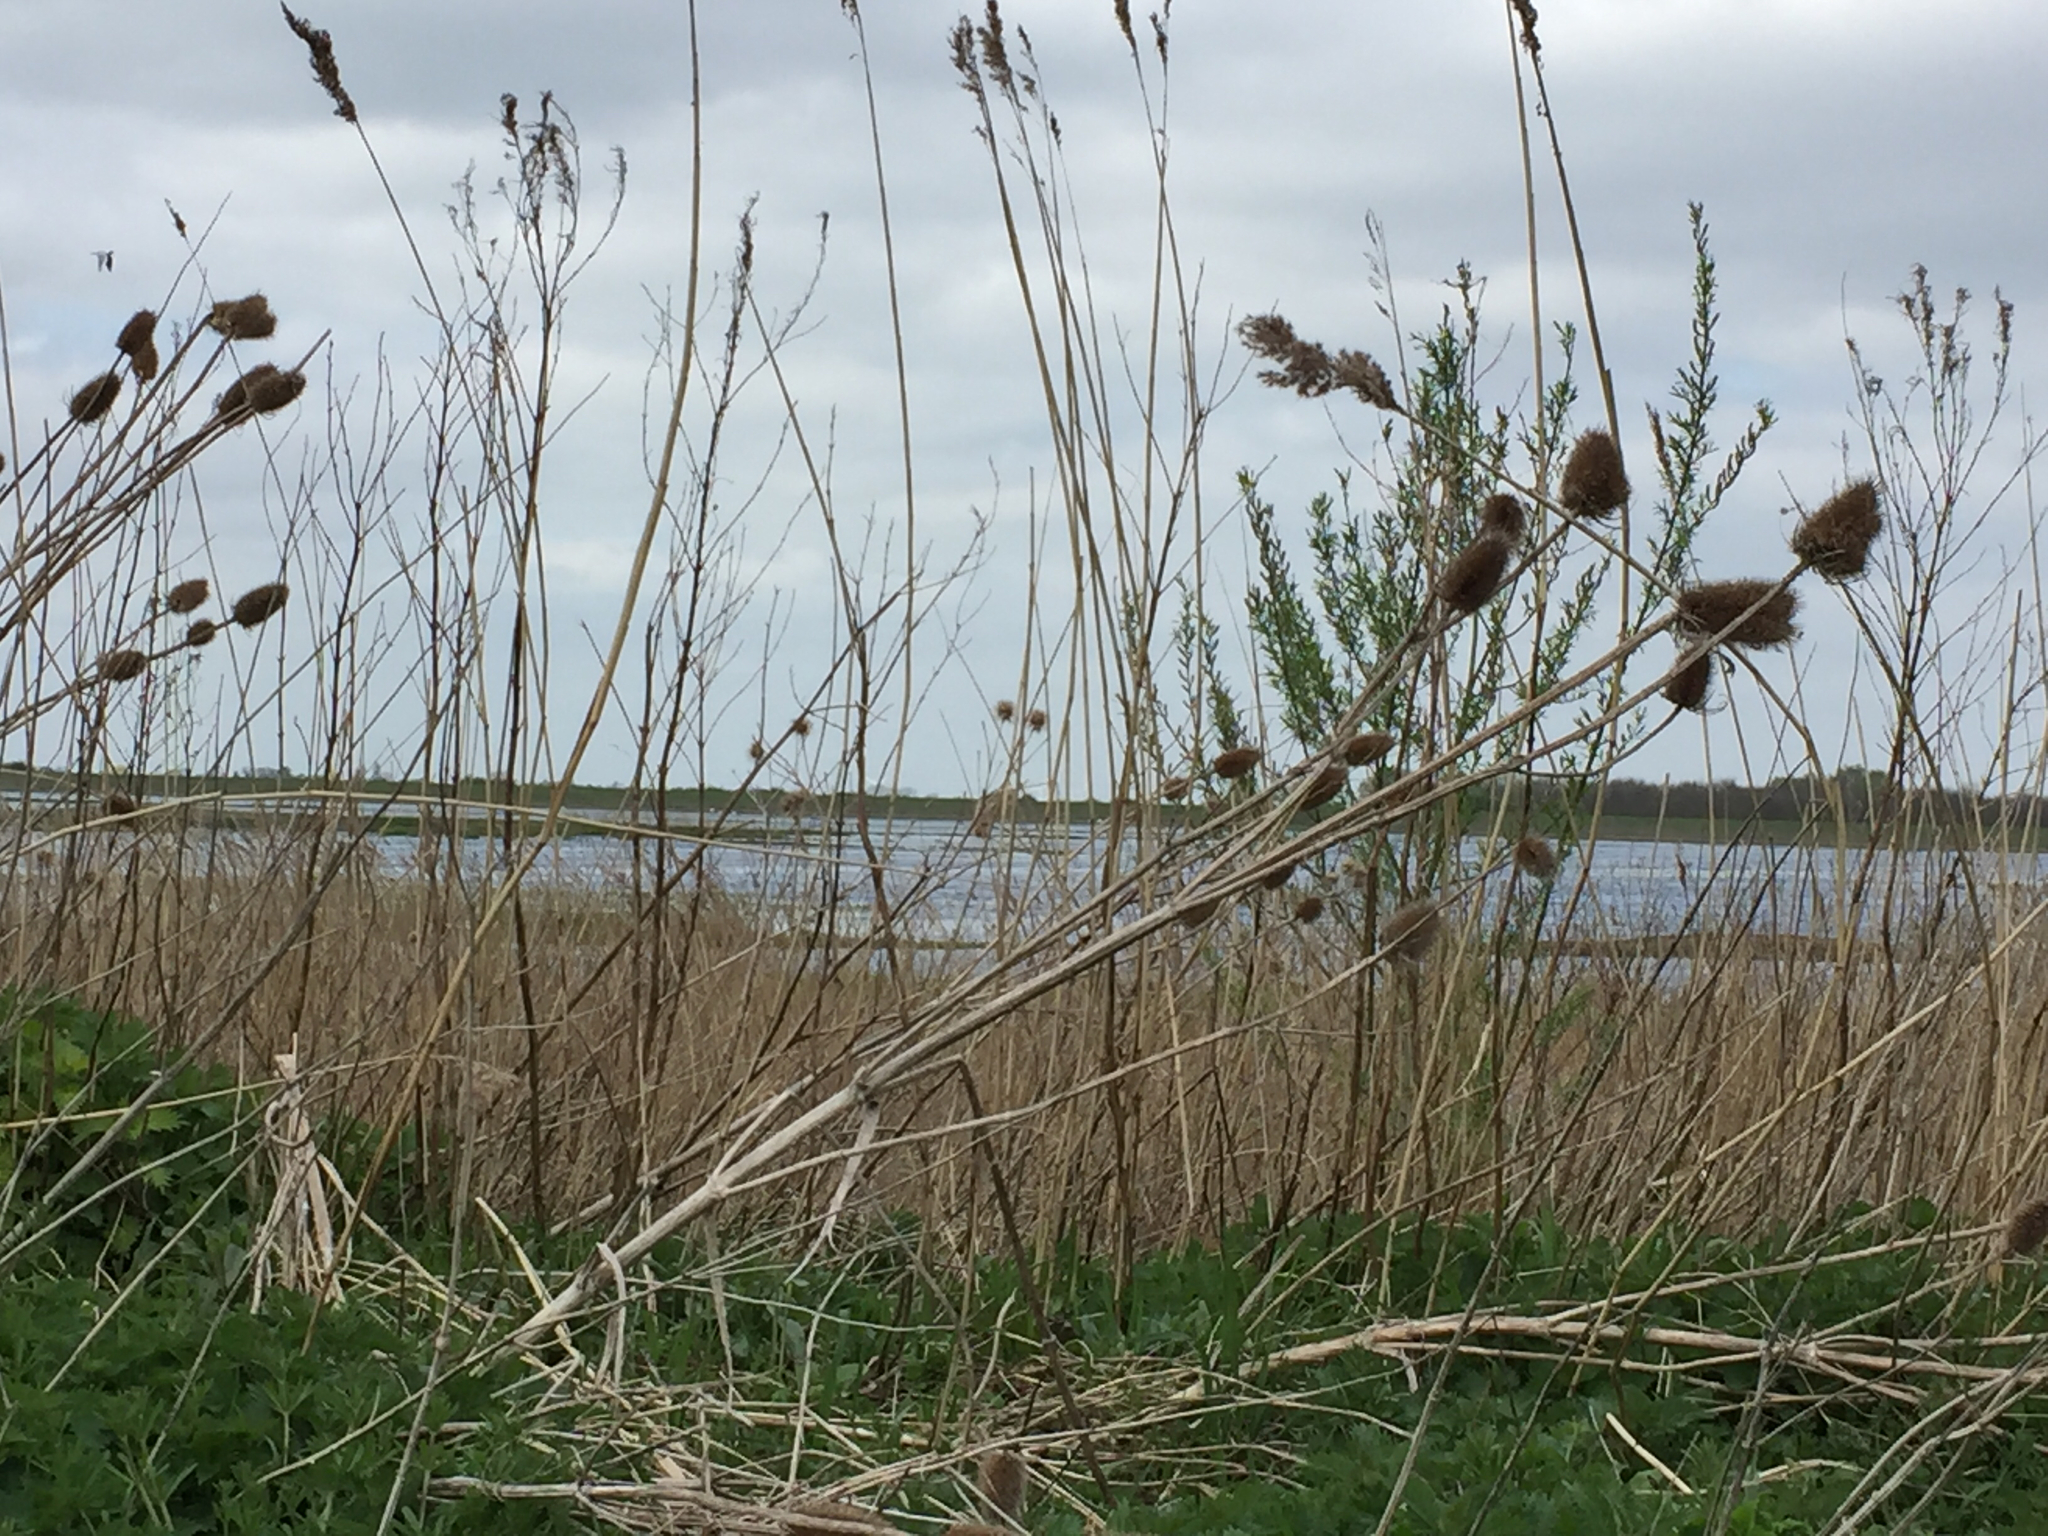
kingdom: Plantae
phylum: Tracheophyta
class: Magnoliopsida
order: Dipsacales
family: Caprifoliaceae
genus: Dipsacus
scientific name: Dipsacus fullonum
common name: Teasel
